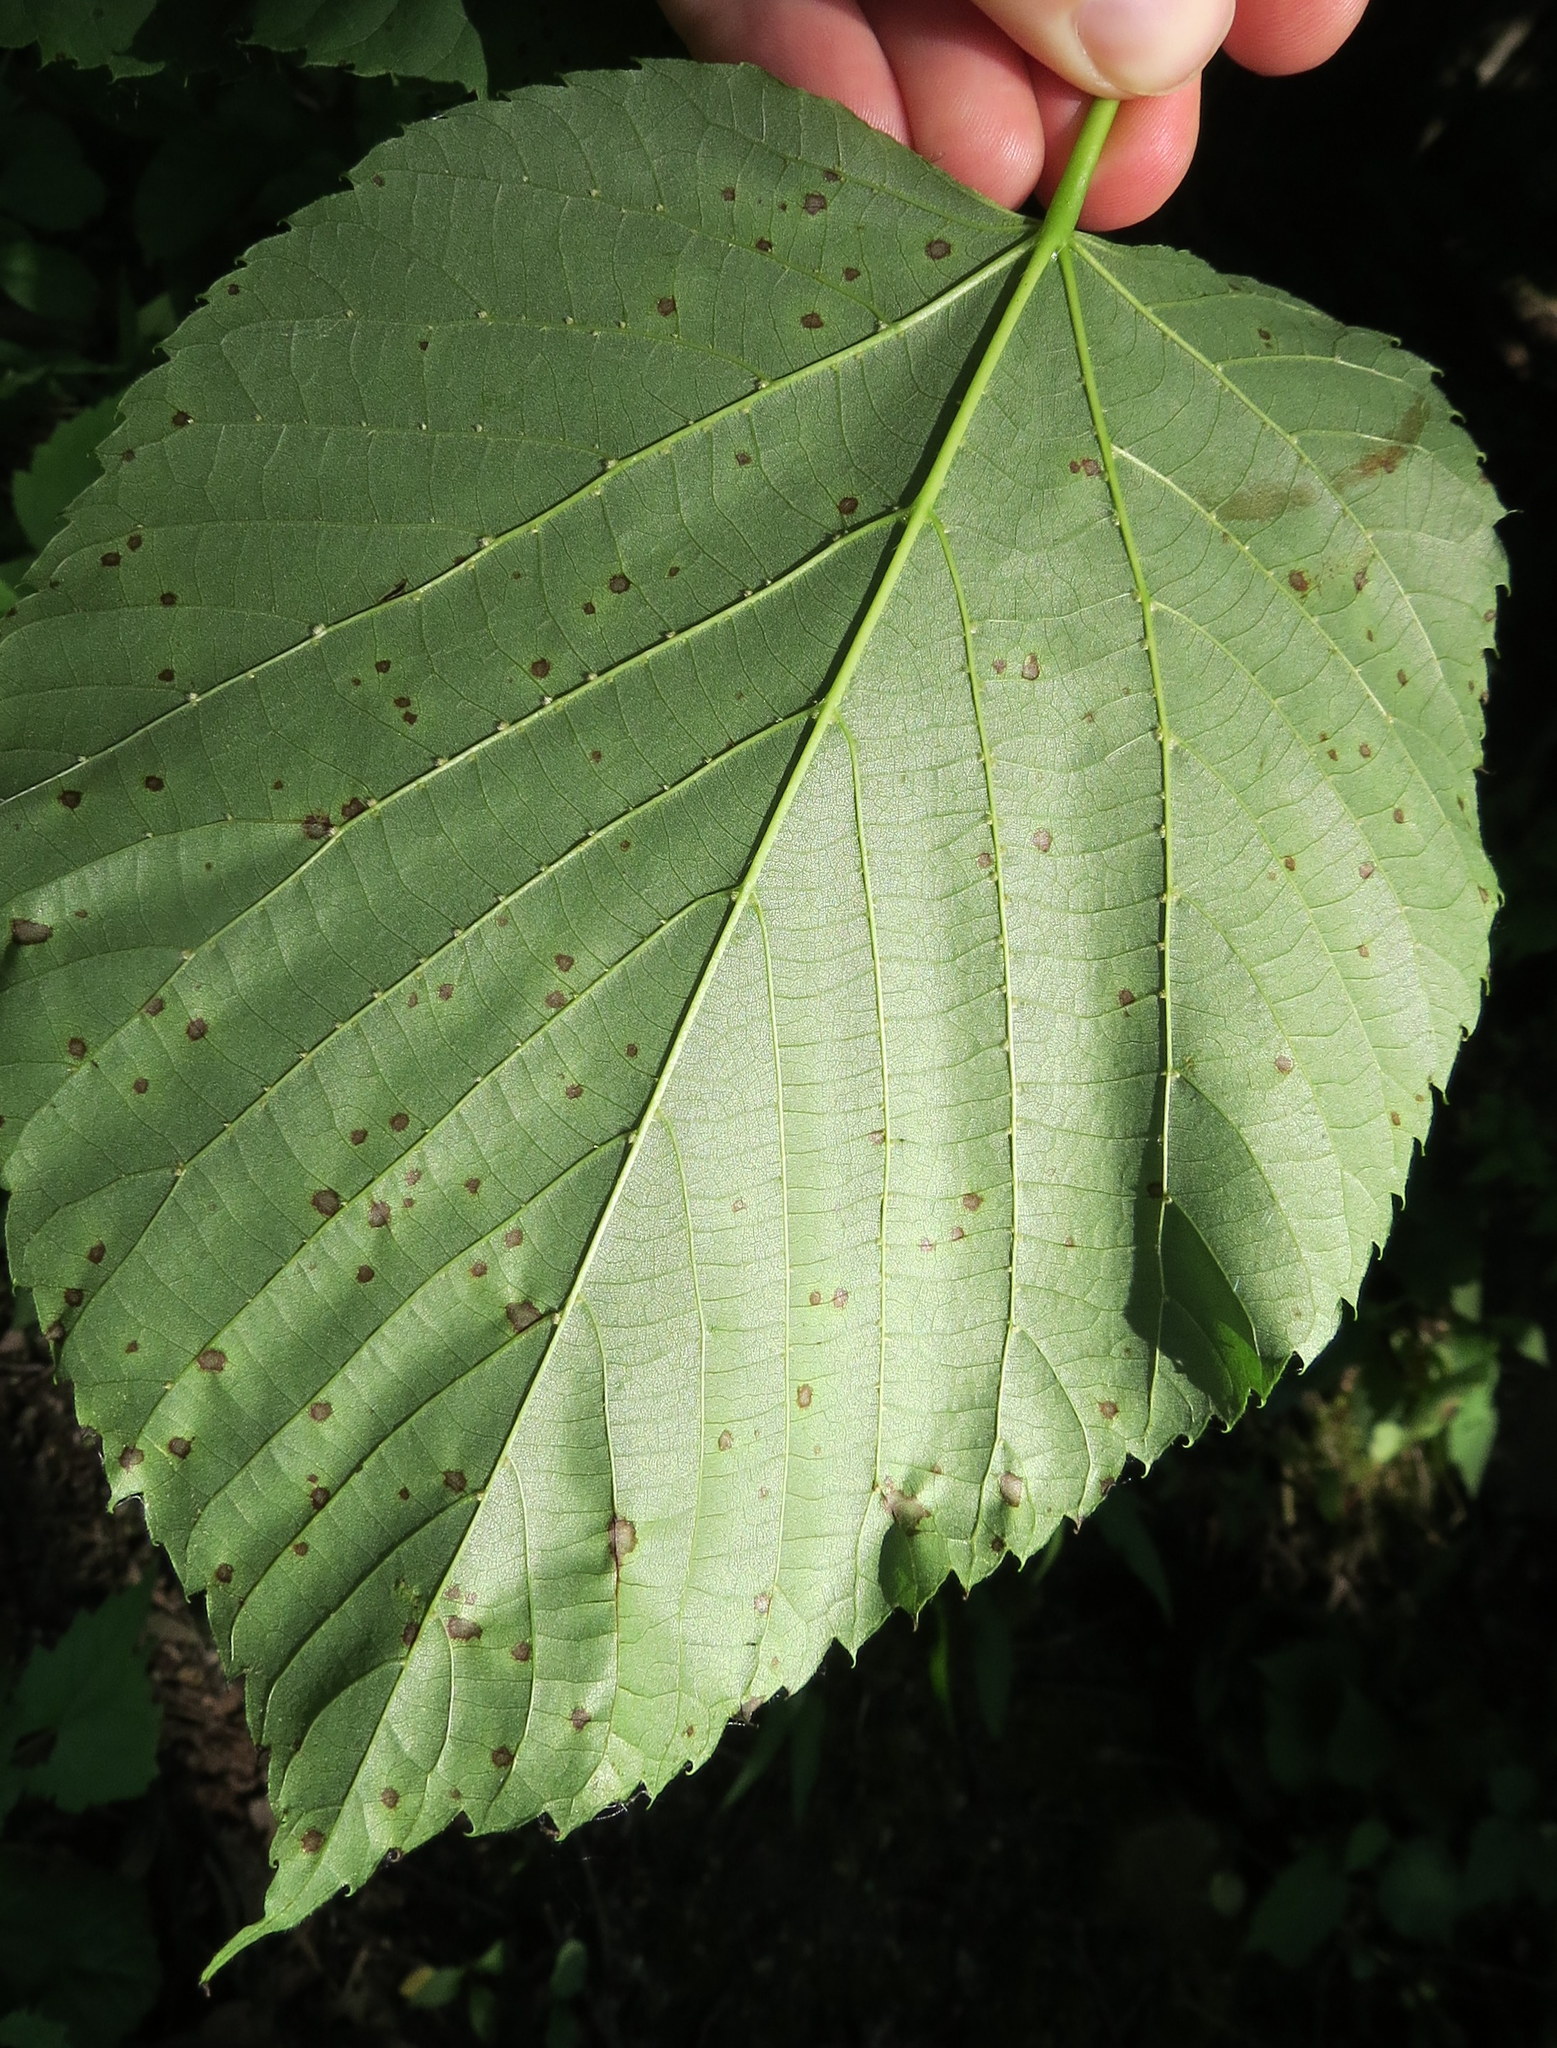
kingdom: Fungi
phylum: Ascomycota
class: Dothideomycetes
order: Mycosphaerellales
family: Mycosphaerellaceae
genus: Paracercosporidium
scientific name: Paracercosporidium microsorum
